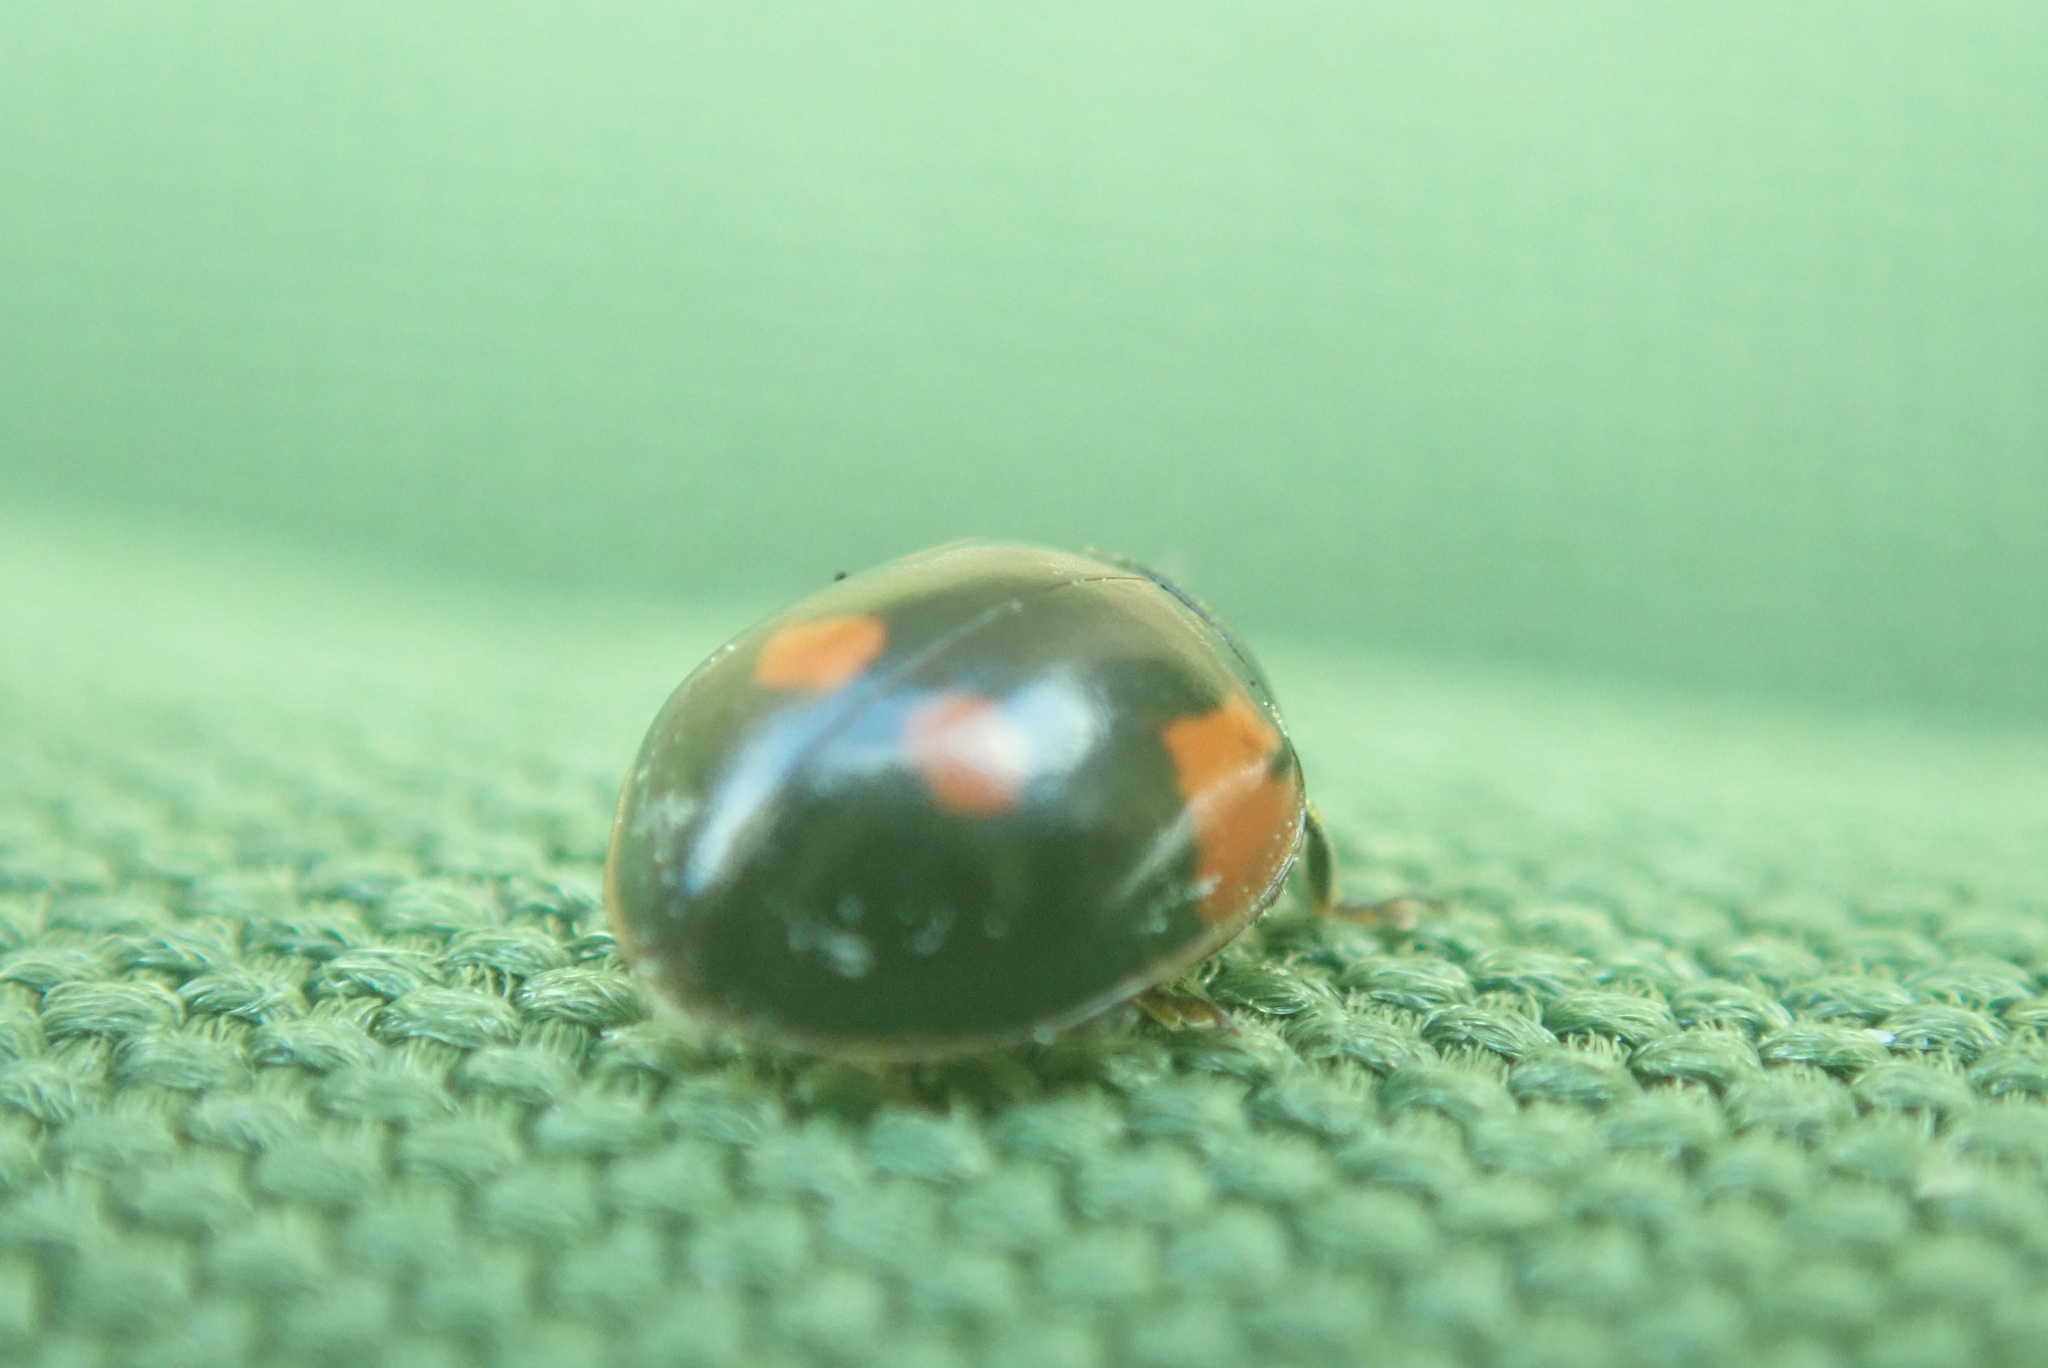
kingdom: Animalia
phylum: Arthropoda
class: Insecta
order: Coleoptera
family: Coccinellidae
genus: Adalia
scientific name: Adalia bipunctata
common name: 2-spot ladybird
